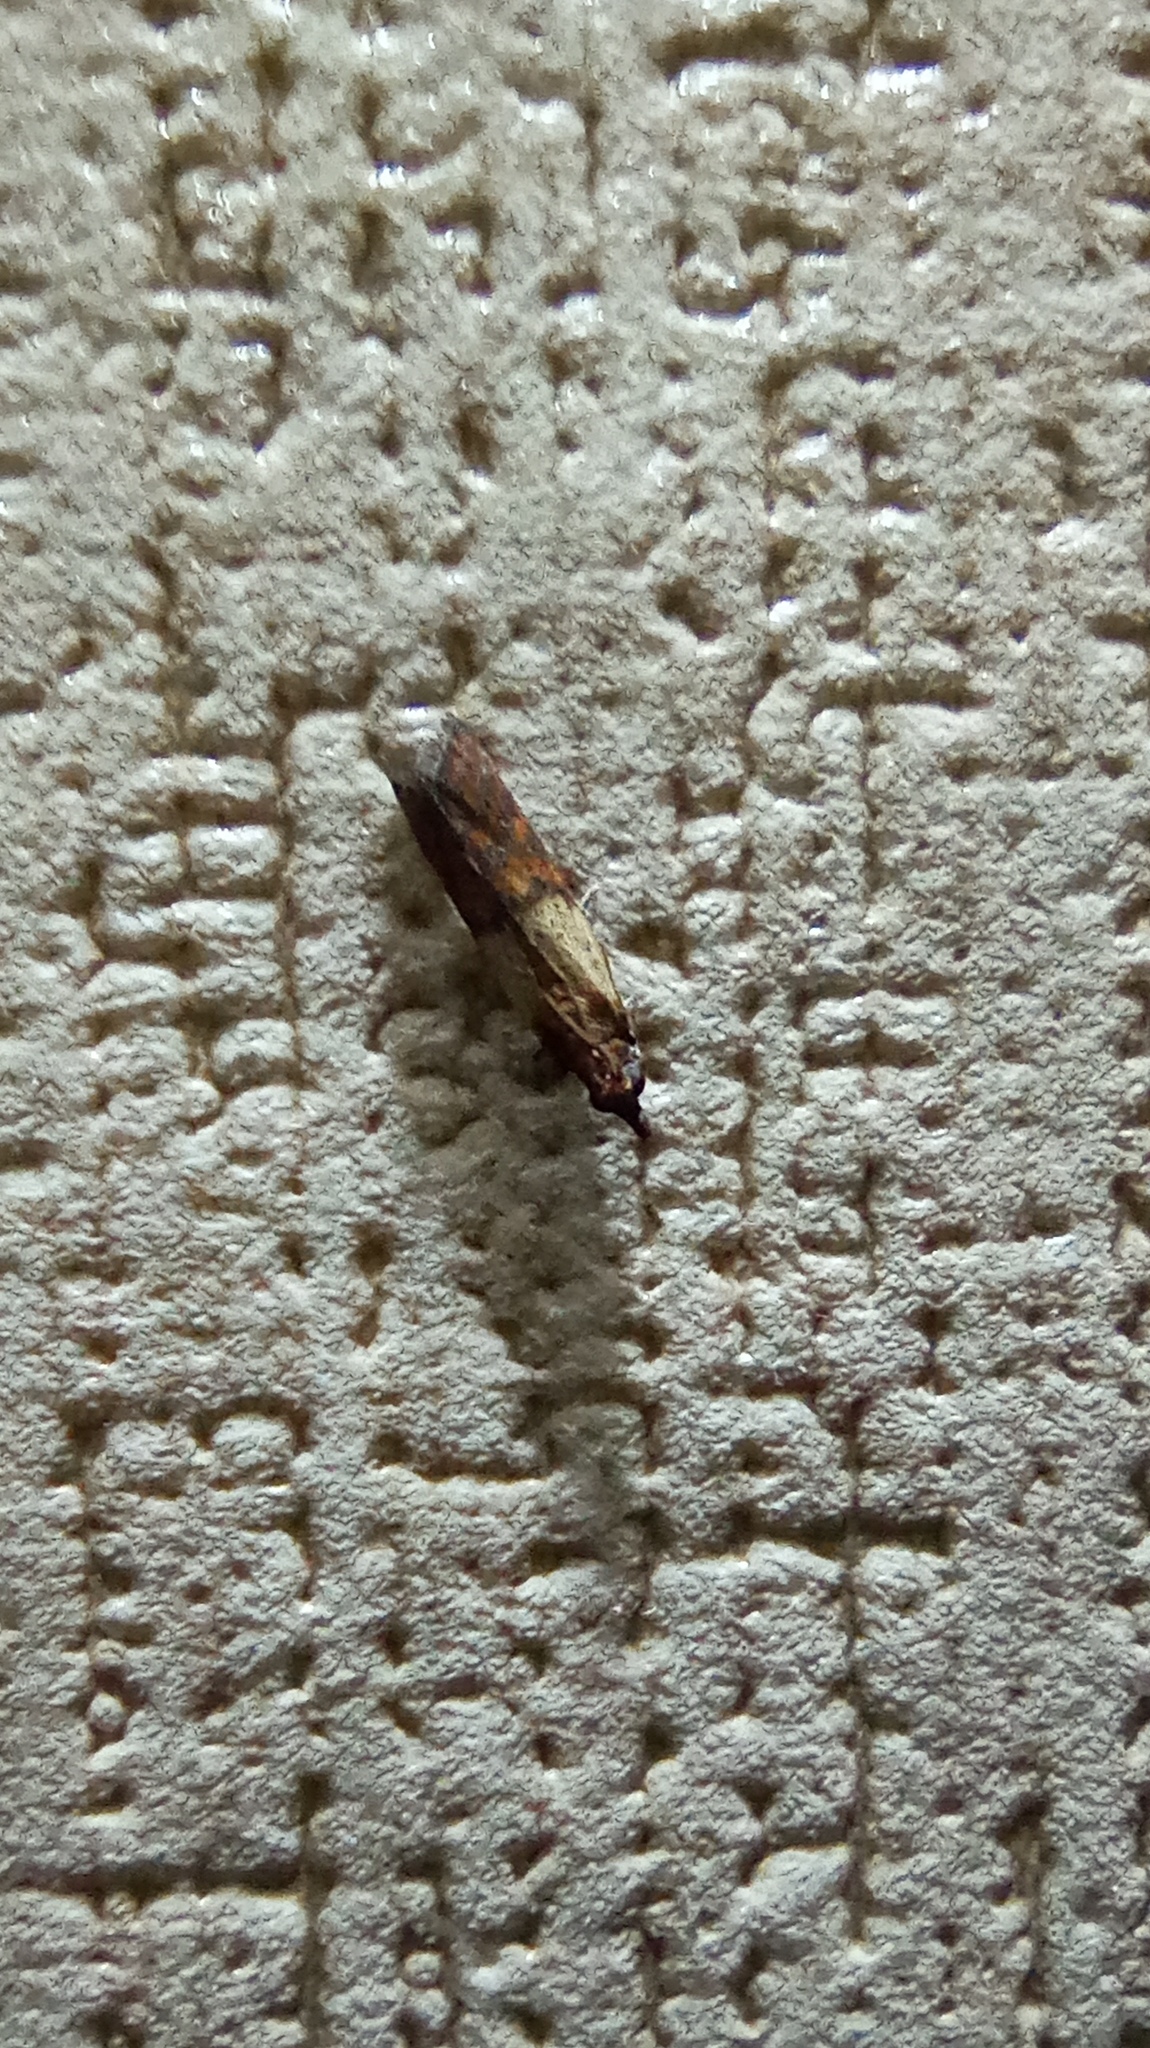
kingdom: Animalia
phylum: Arthropoda
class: Insecta
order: Lepidoptera
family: Pyralidae
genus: Plodia
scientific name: Plodia interpunctella
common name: Indian meal moth
